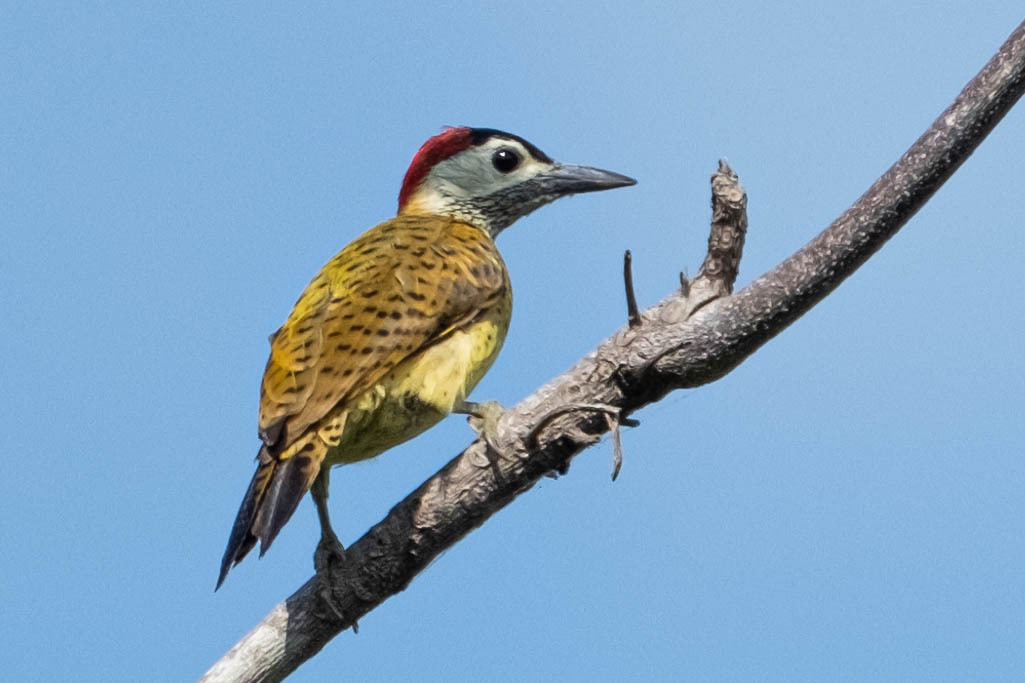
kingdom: Animalia
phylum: Chordata
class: Aves
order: Piciformes
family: Picidae
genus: Colaptes
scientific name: Colaptes punctigula
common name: Spot-breasted woodpecker
